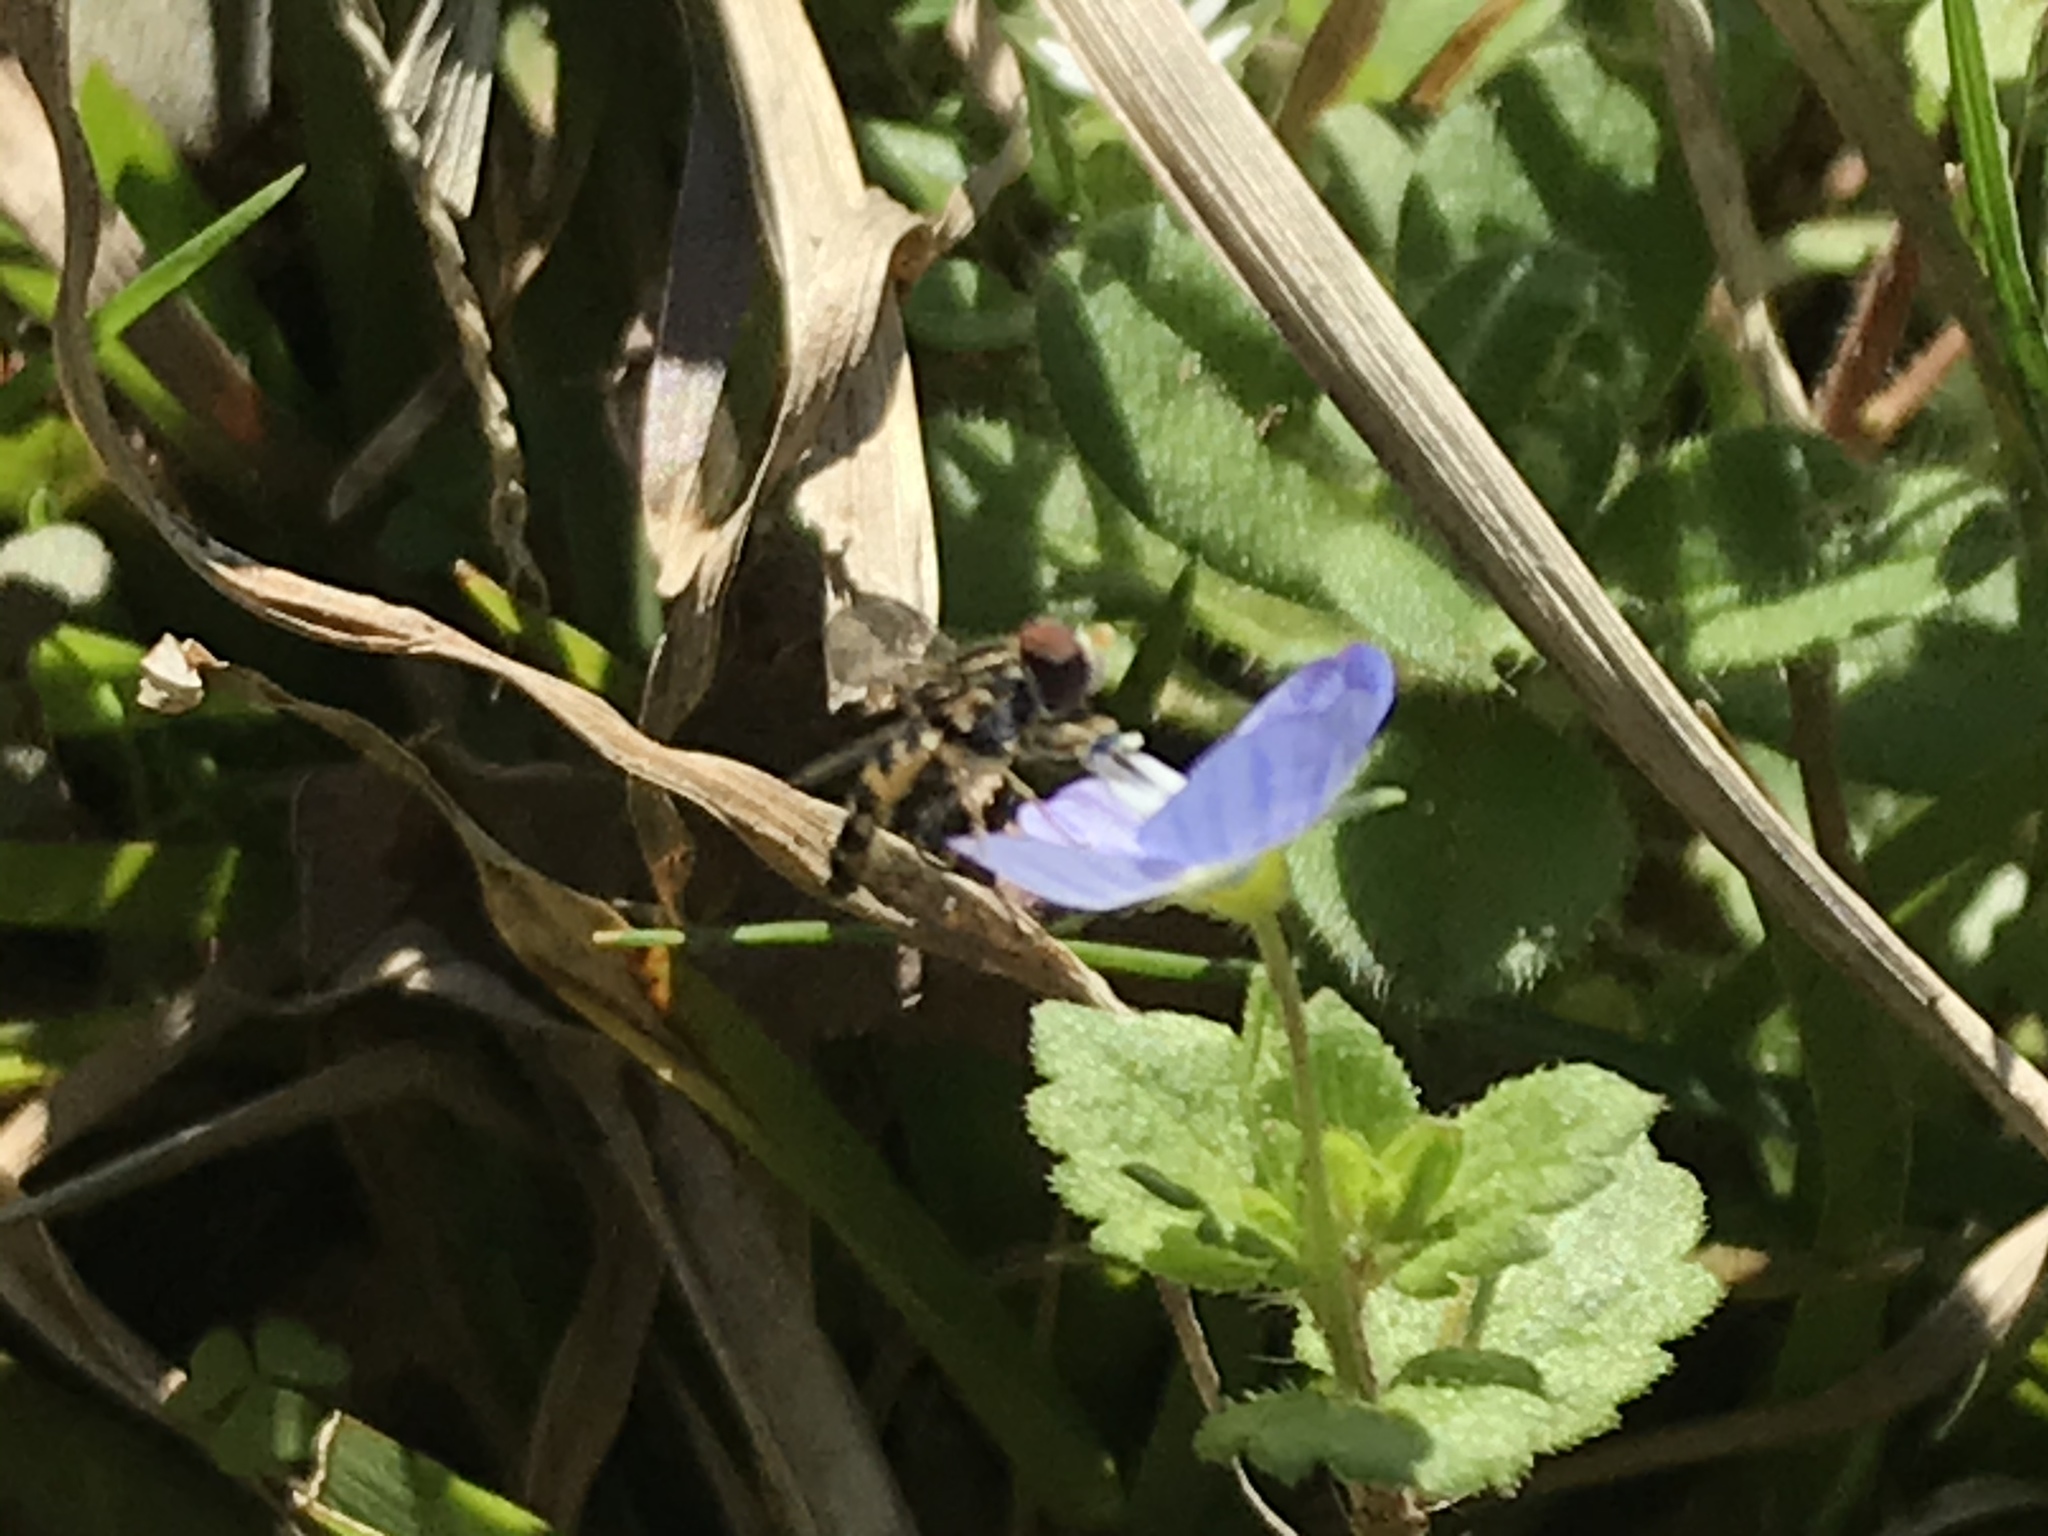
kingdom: Animalia
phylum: Arthropoda
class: Insecta
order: Diptera
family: Syrphidae
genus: Toxomerus
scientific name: Toxomerus geminatus
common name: Eastern calligrapher
